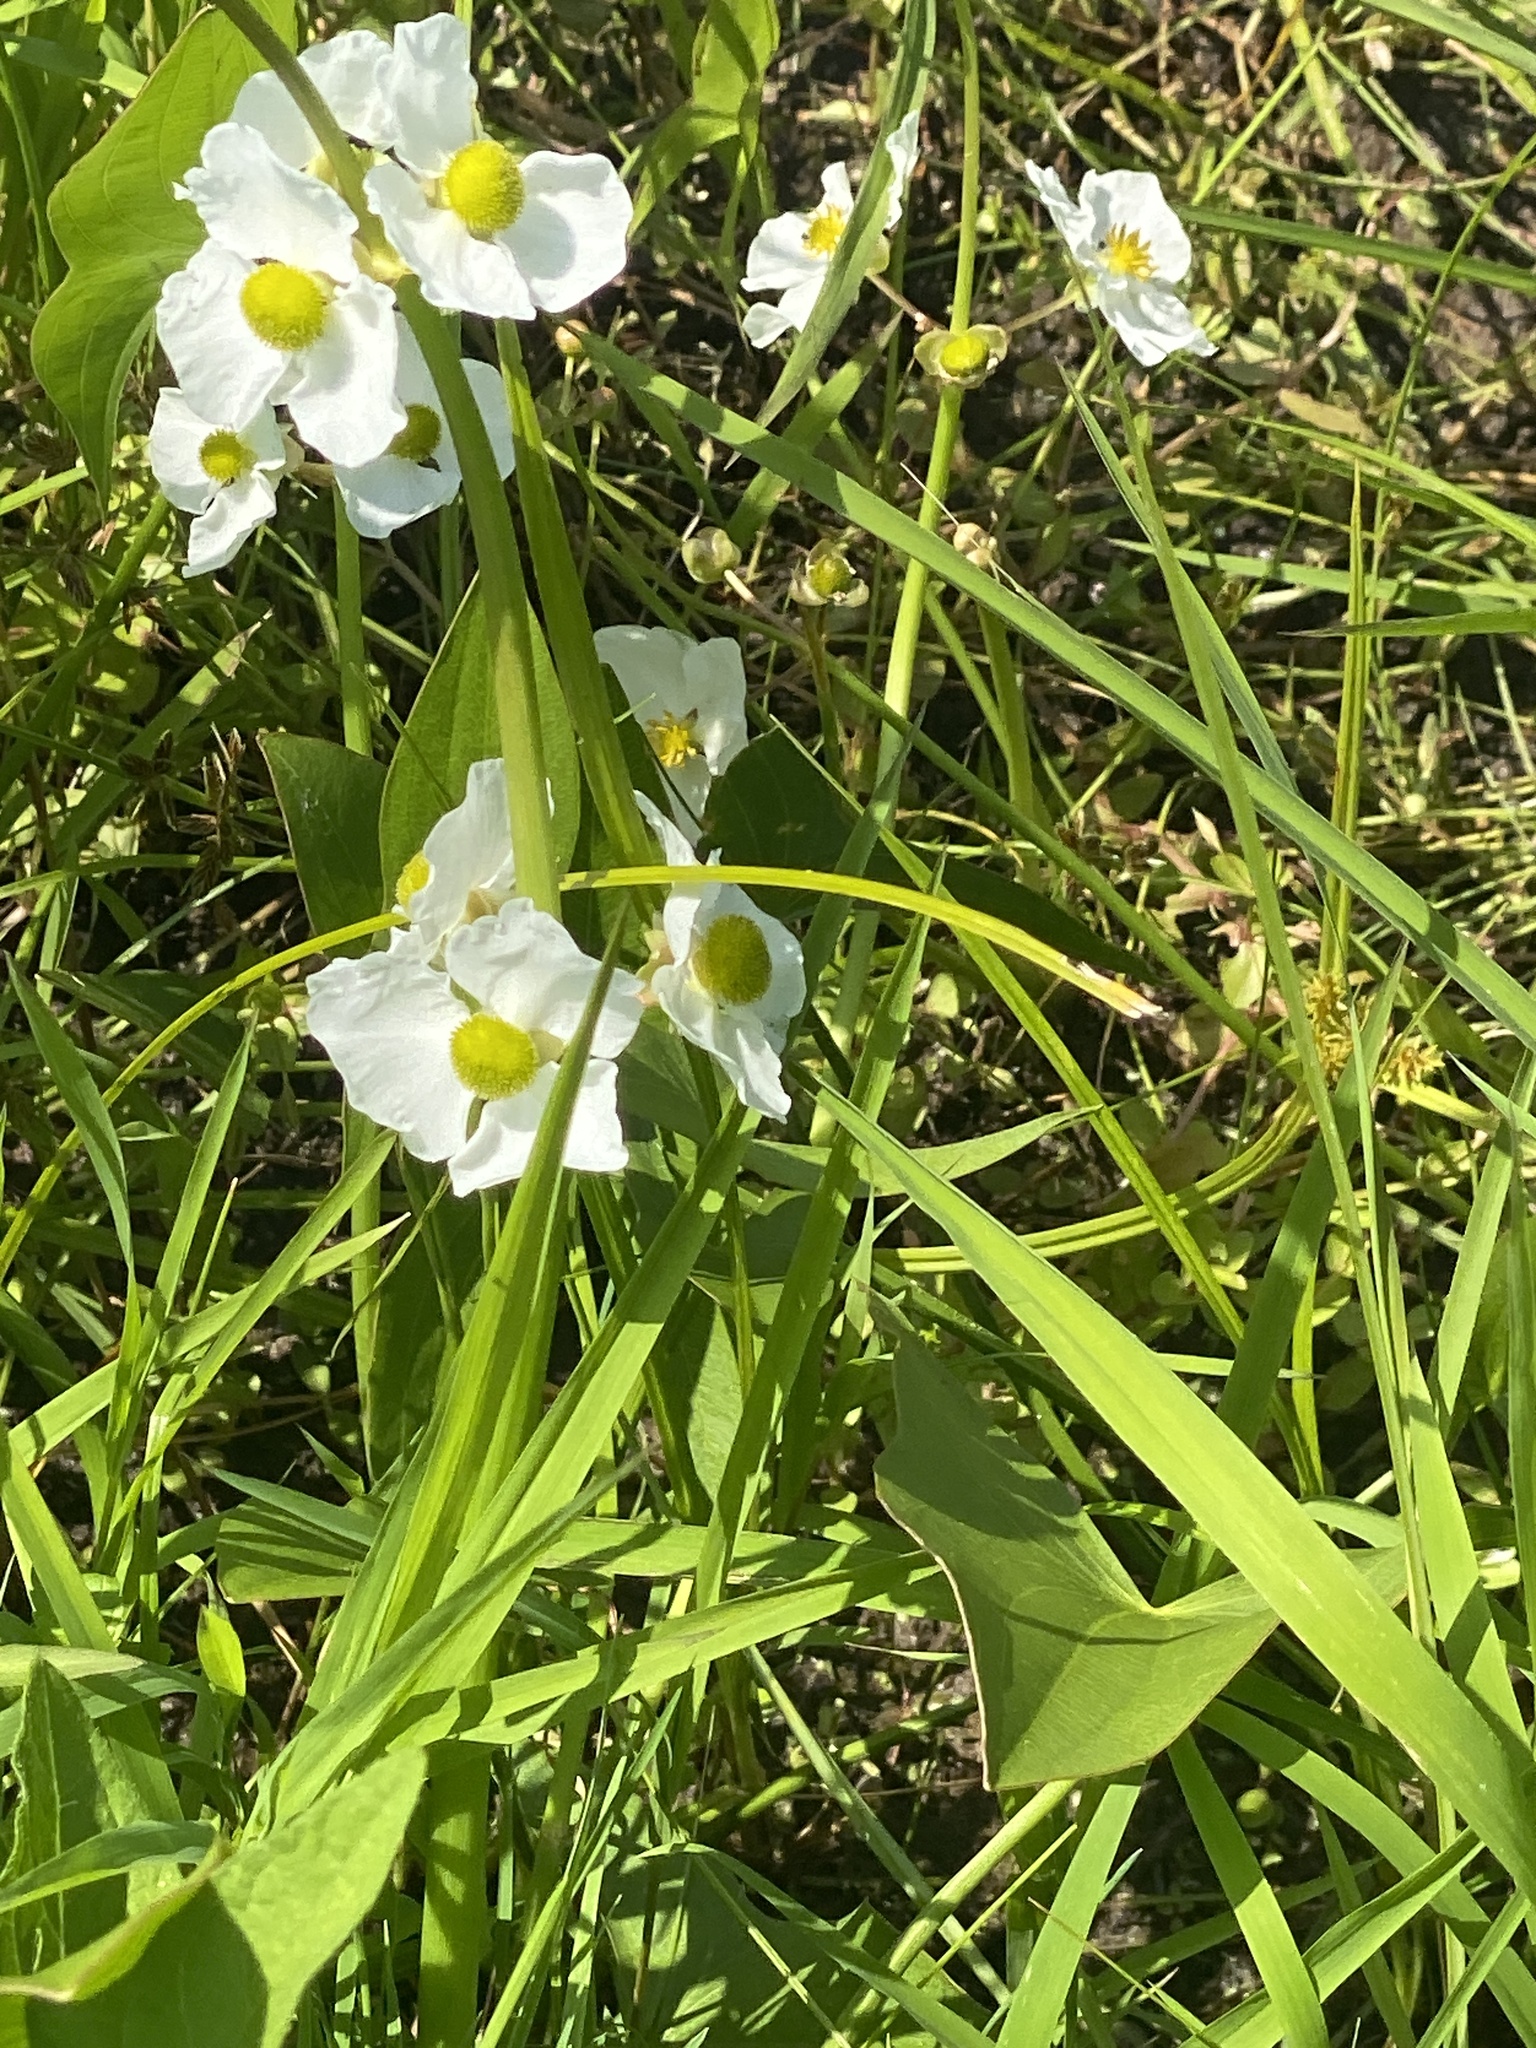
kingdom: Plantae
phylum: Tracheophyta
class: Liliopsida
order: Alismatales
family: Alismataceae
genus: Sagittaria
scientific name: Sagittaria latifolia
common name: Duck-potato
